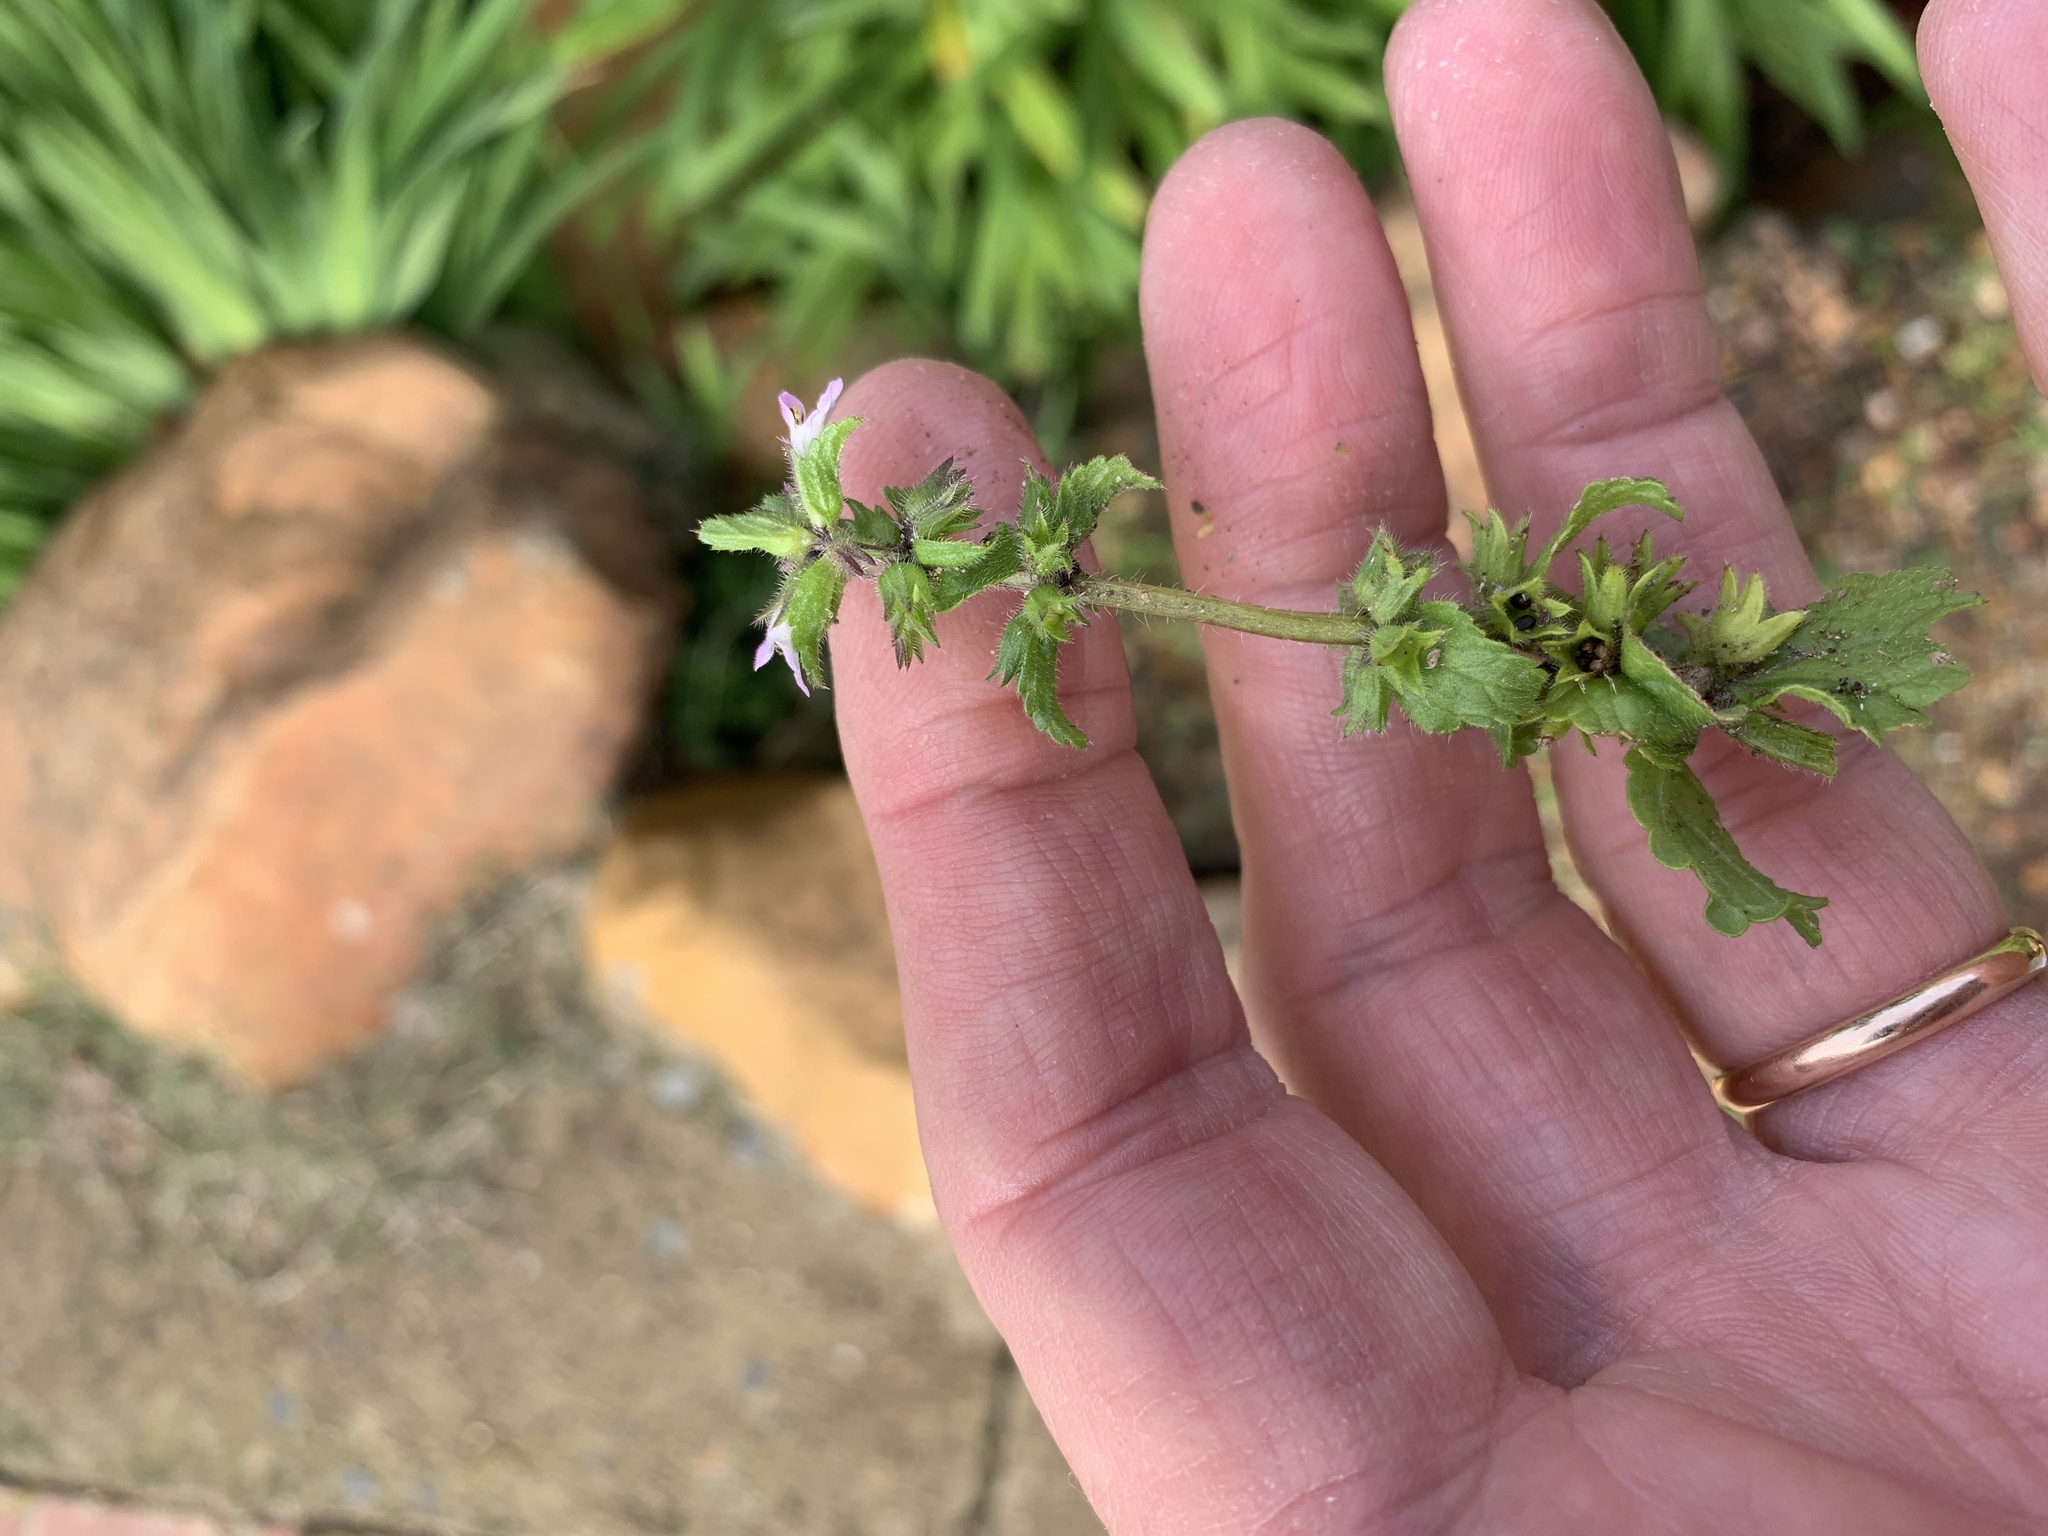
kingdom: Plantae
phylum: Tracheophyta
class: Magnoliopsida
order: Lamiales
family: Lamiaceae
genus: Stachys
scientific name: Stachys arvensis
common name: Field woundwort
